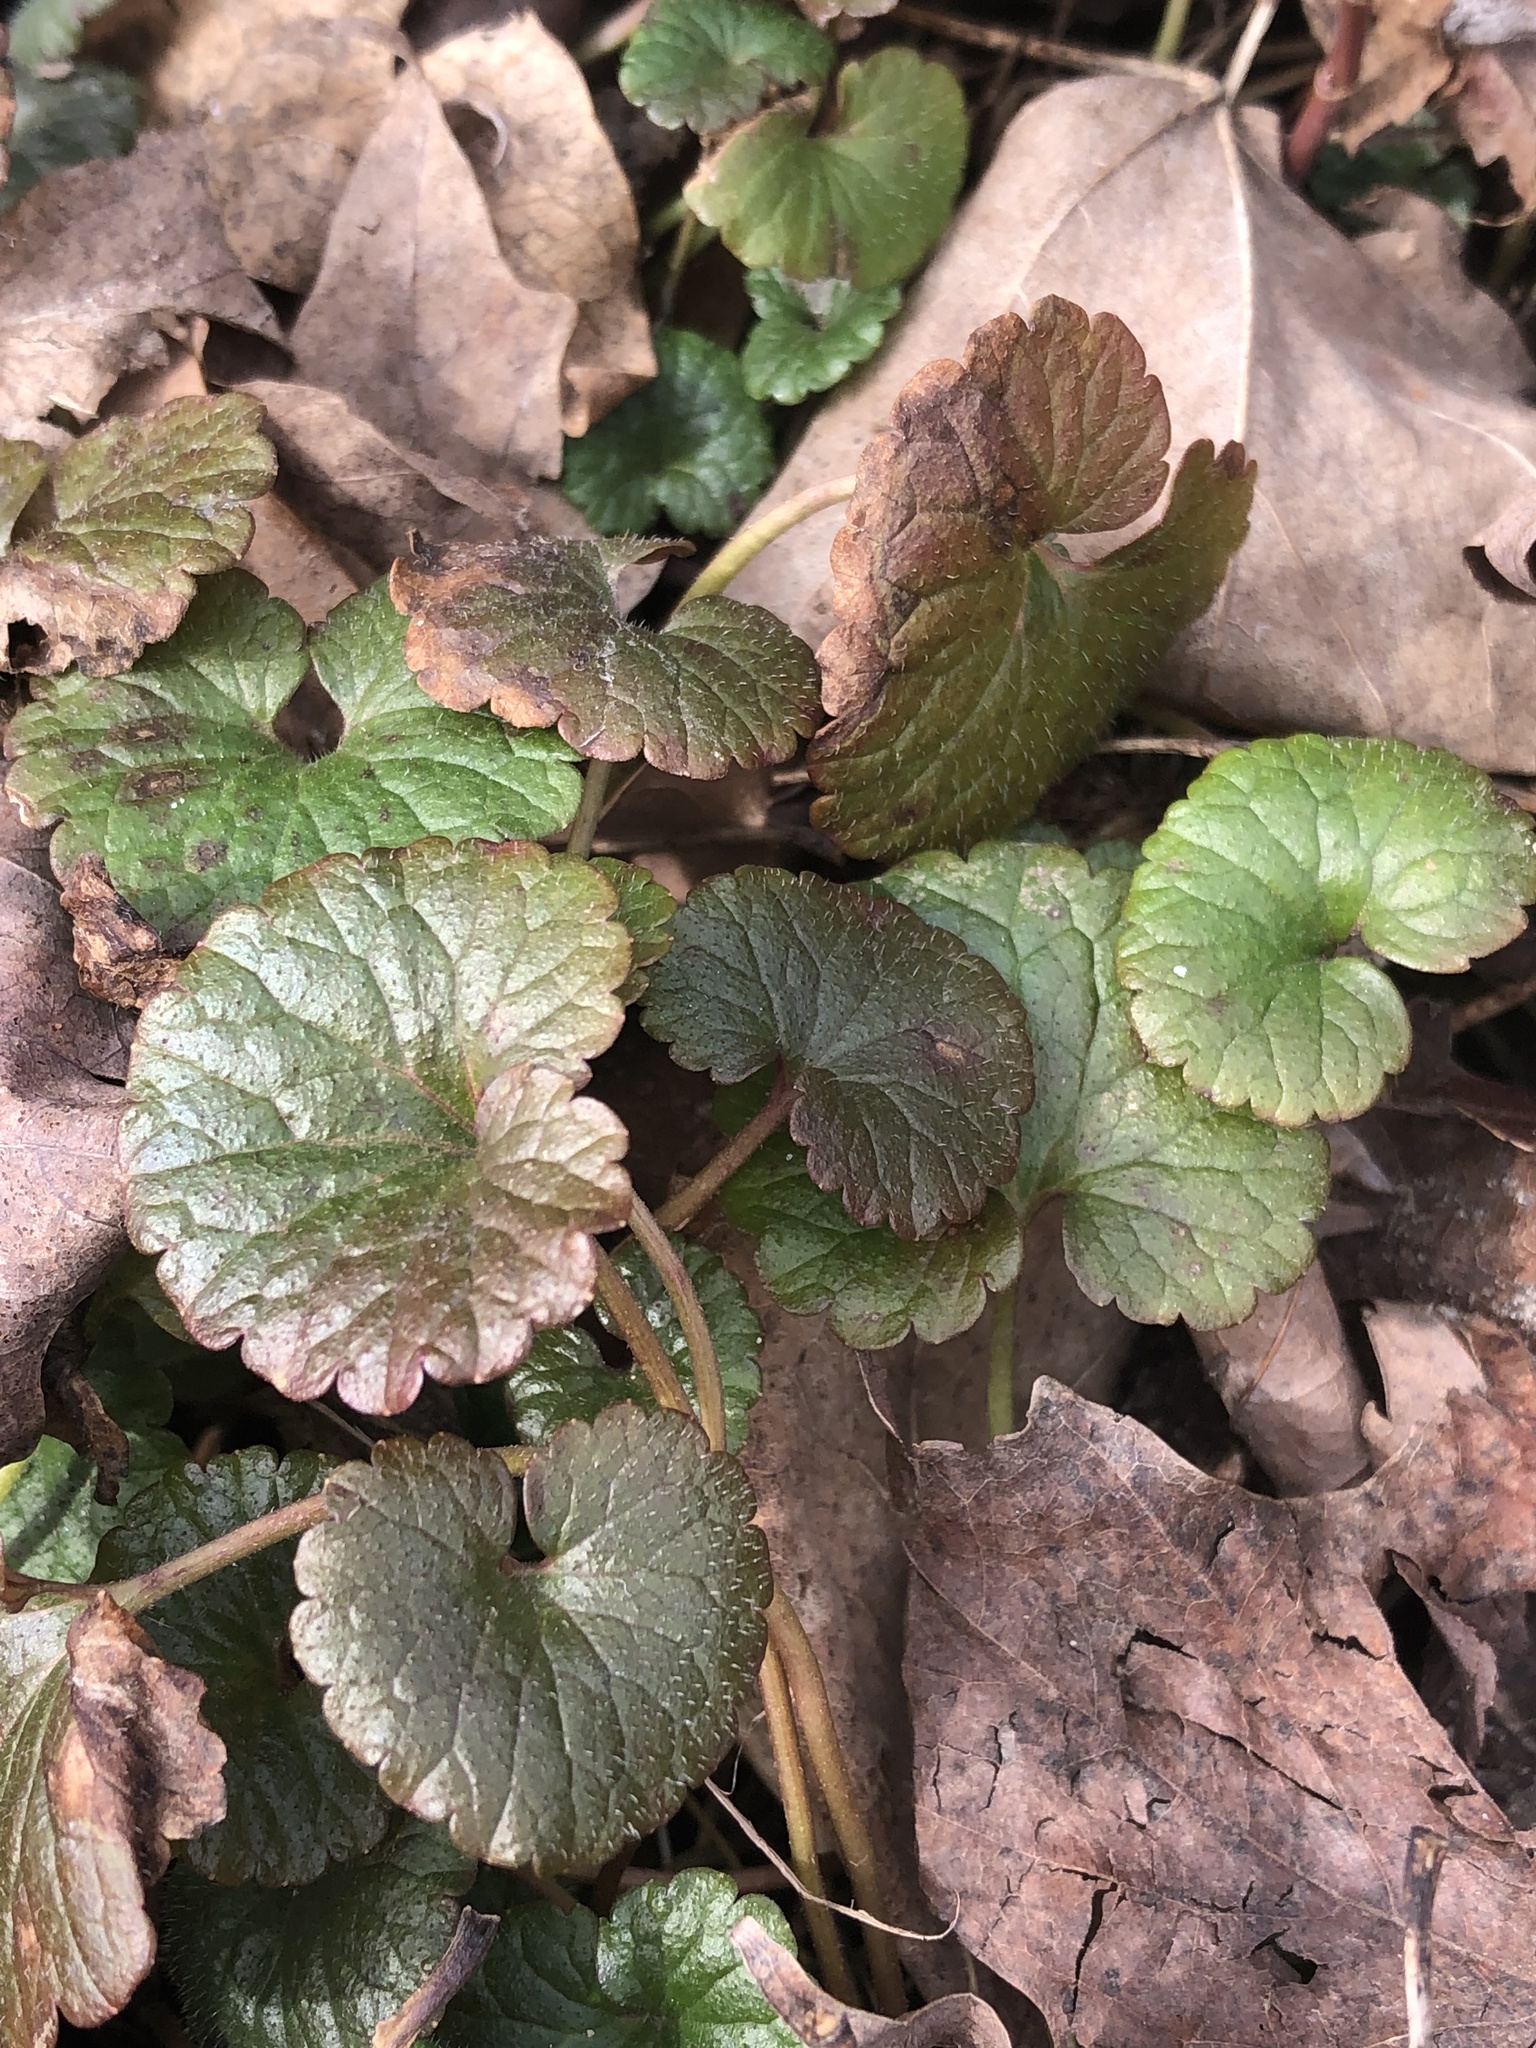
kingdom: Plantae
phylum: Tracheophyta
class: Magnoliopsida
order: Lamiales
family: Lamiaceae
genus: Glechoma
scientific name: Glechoma hederacea
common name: Ground ivy
